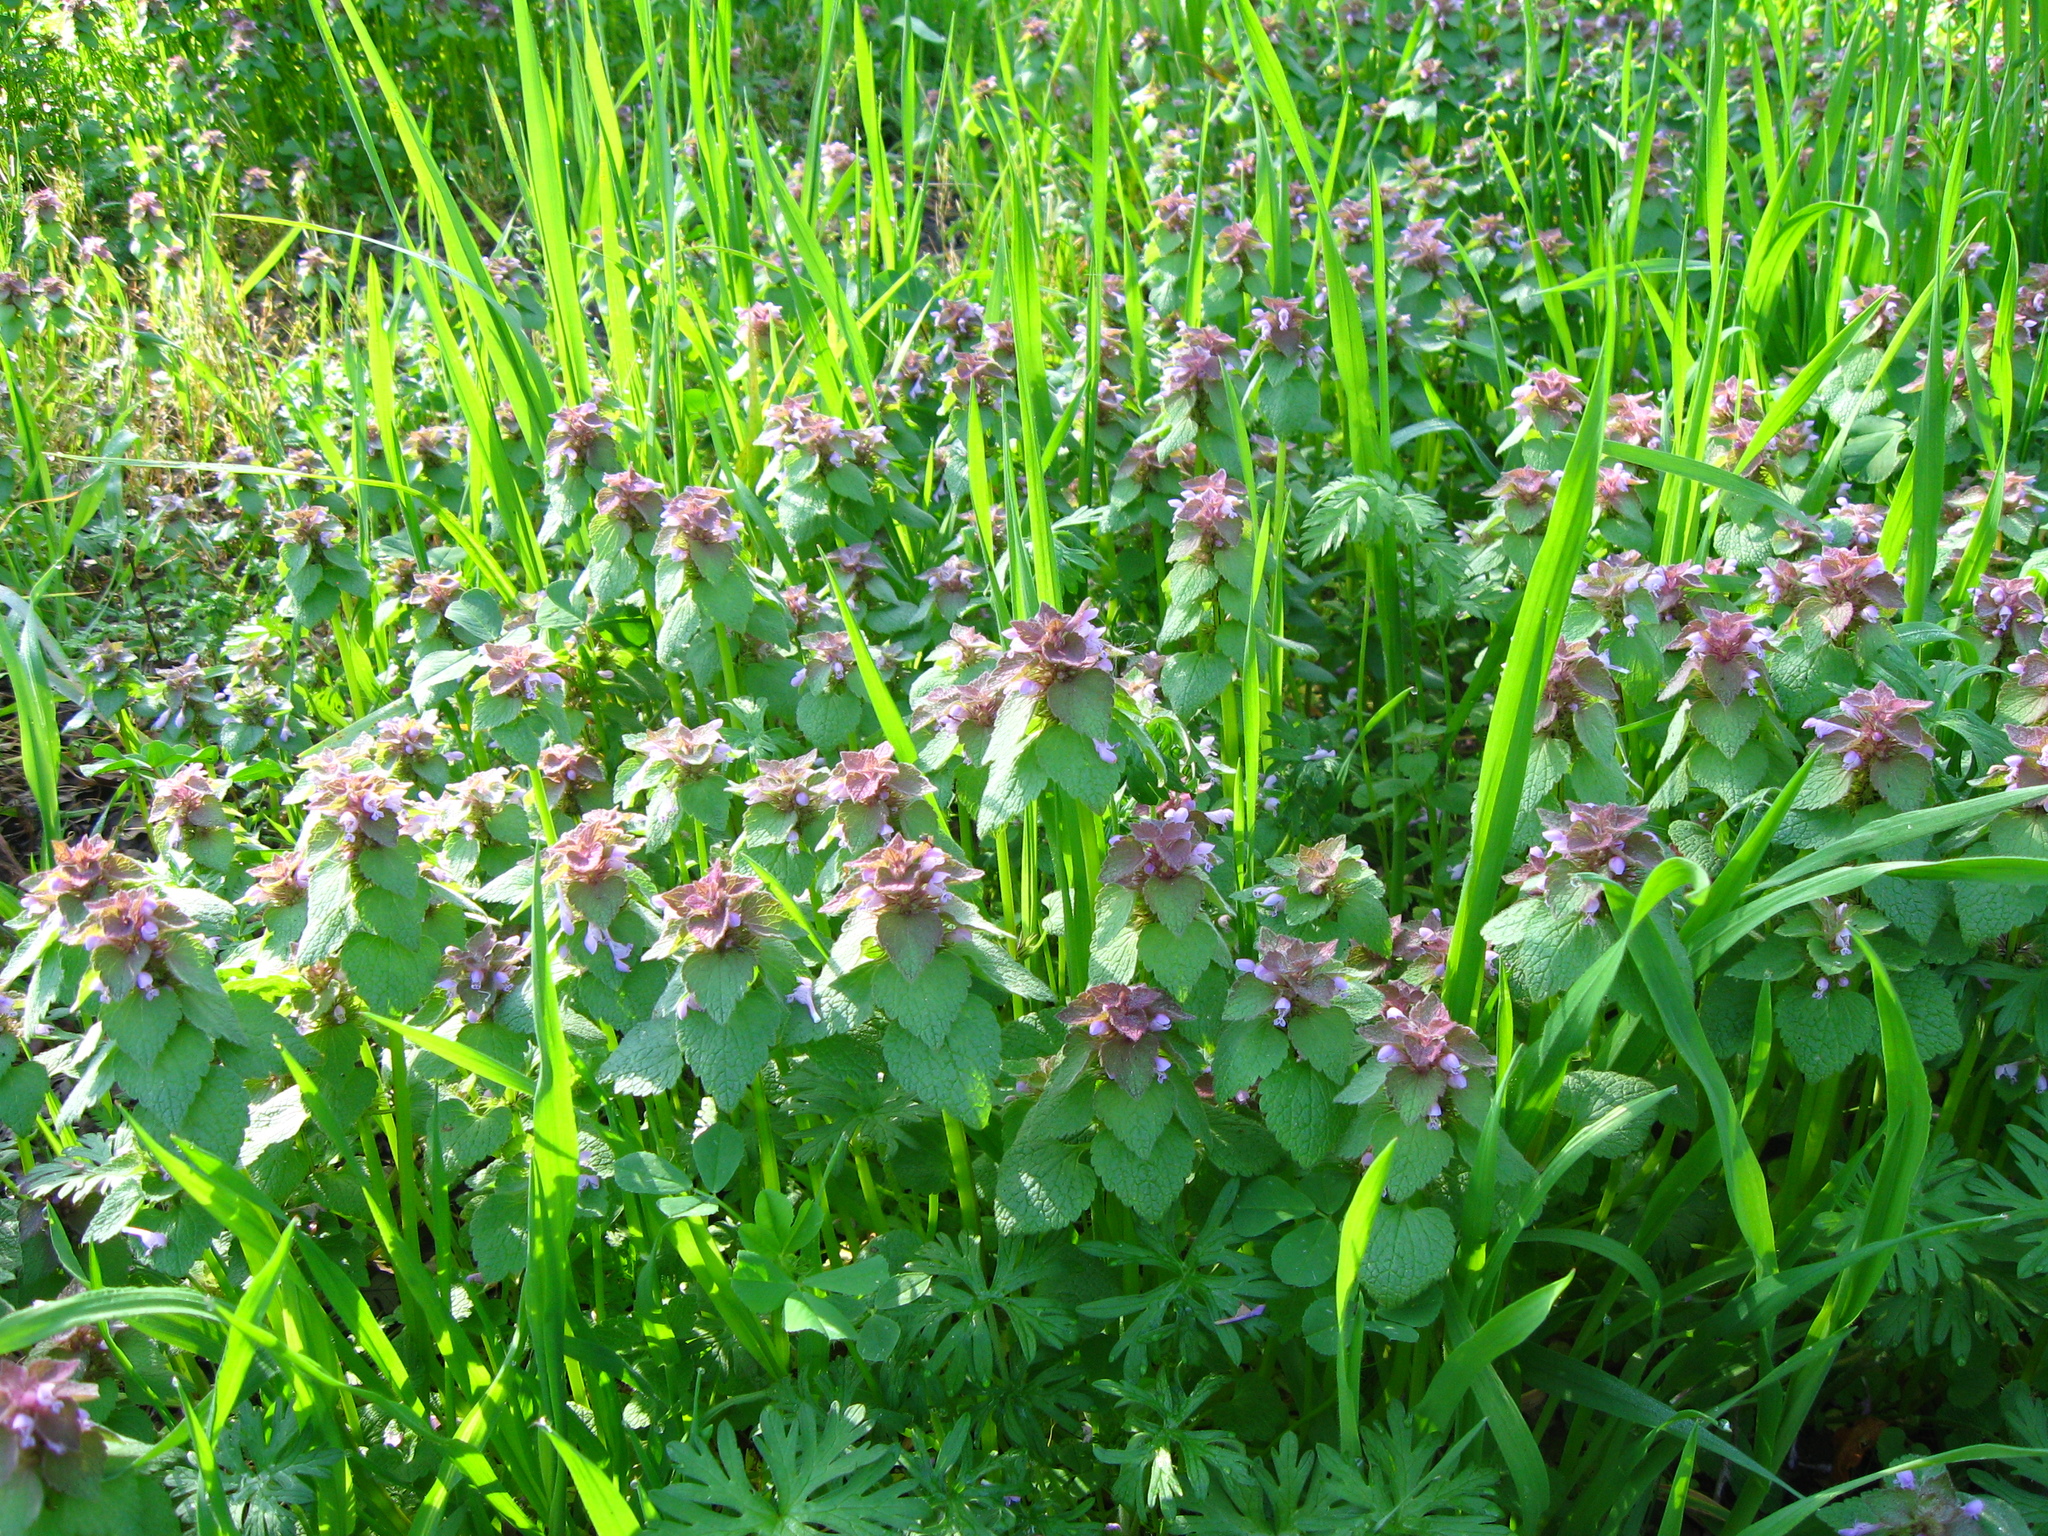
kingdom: Plantae
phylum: Tracheophyta
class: Magnoliopsida
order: Lamiales
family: Lamiaceae
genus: Lamium
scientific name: Lamium purpureum
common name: Red dead-nettle
